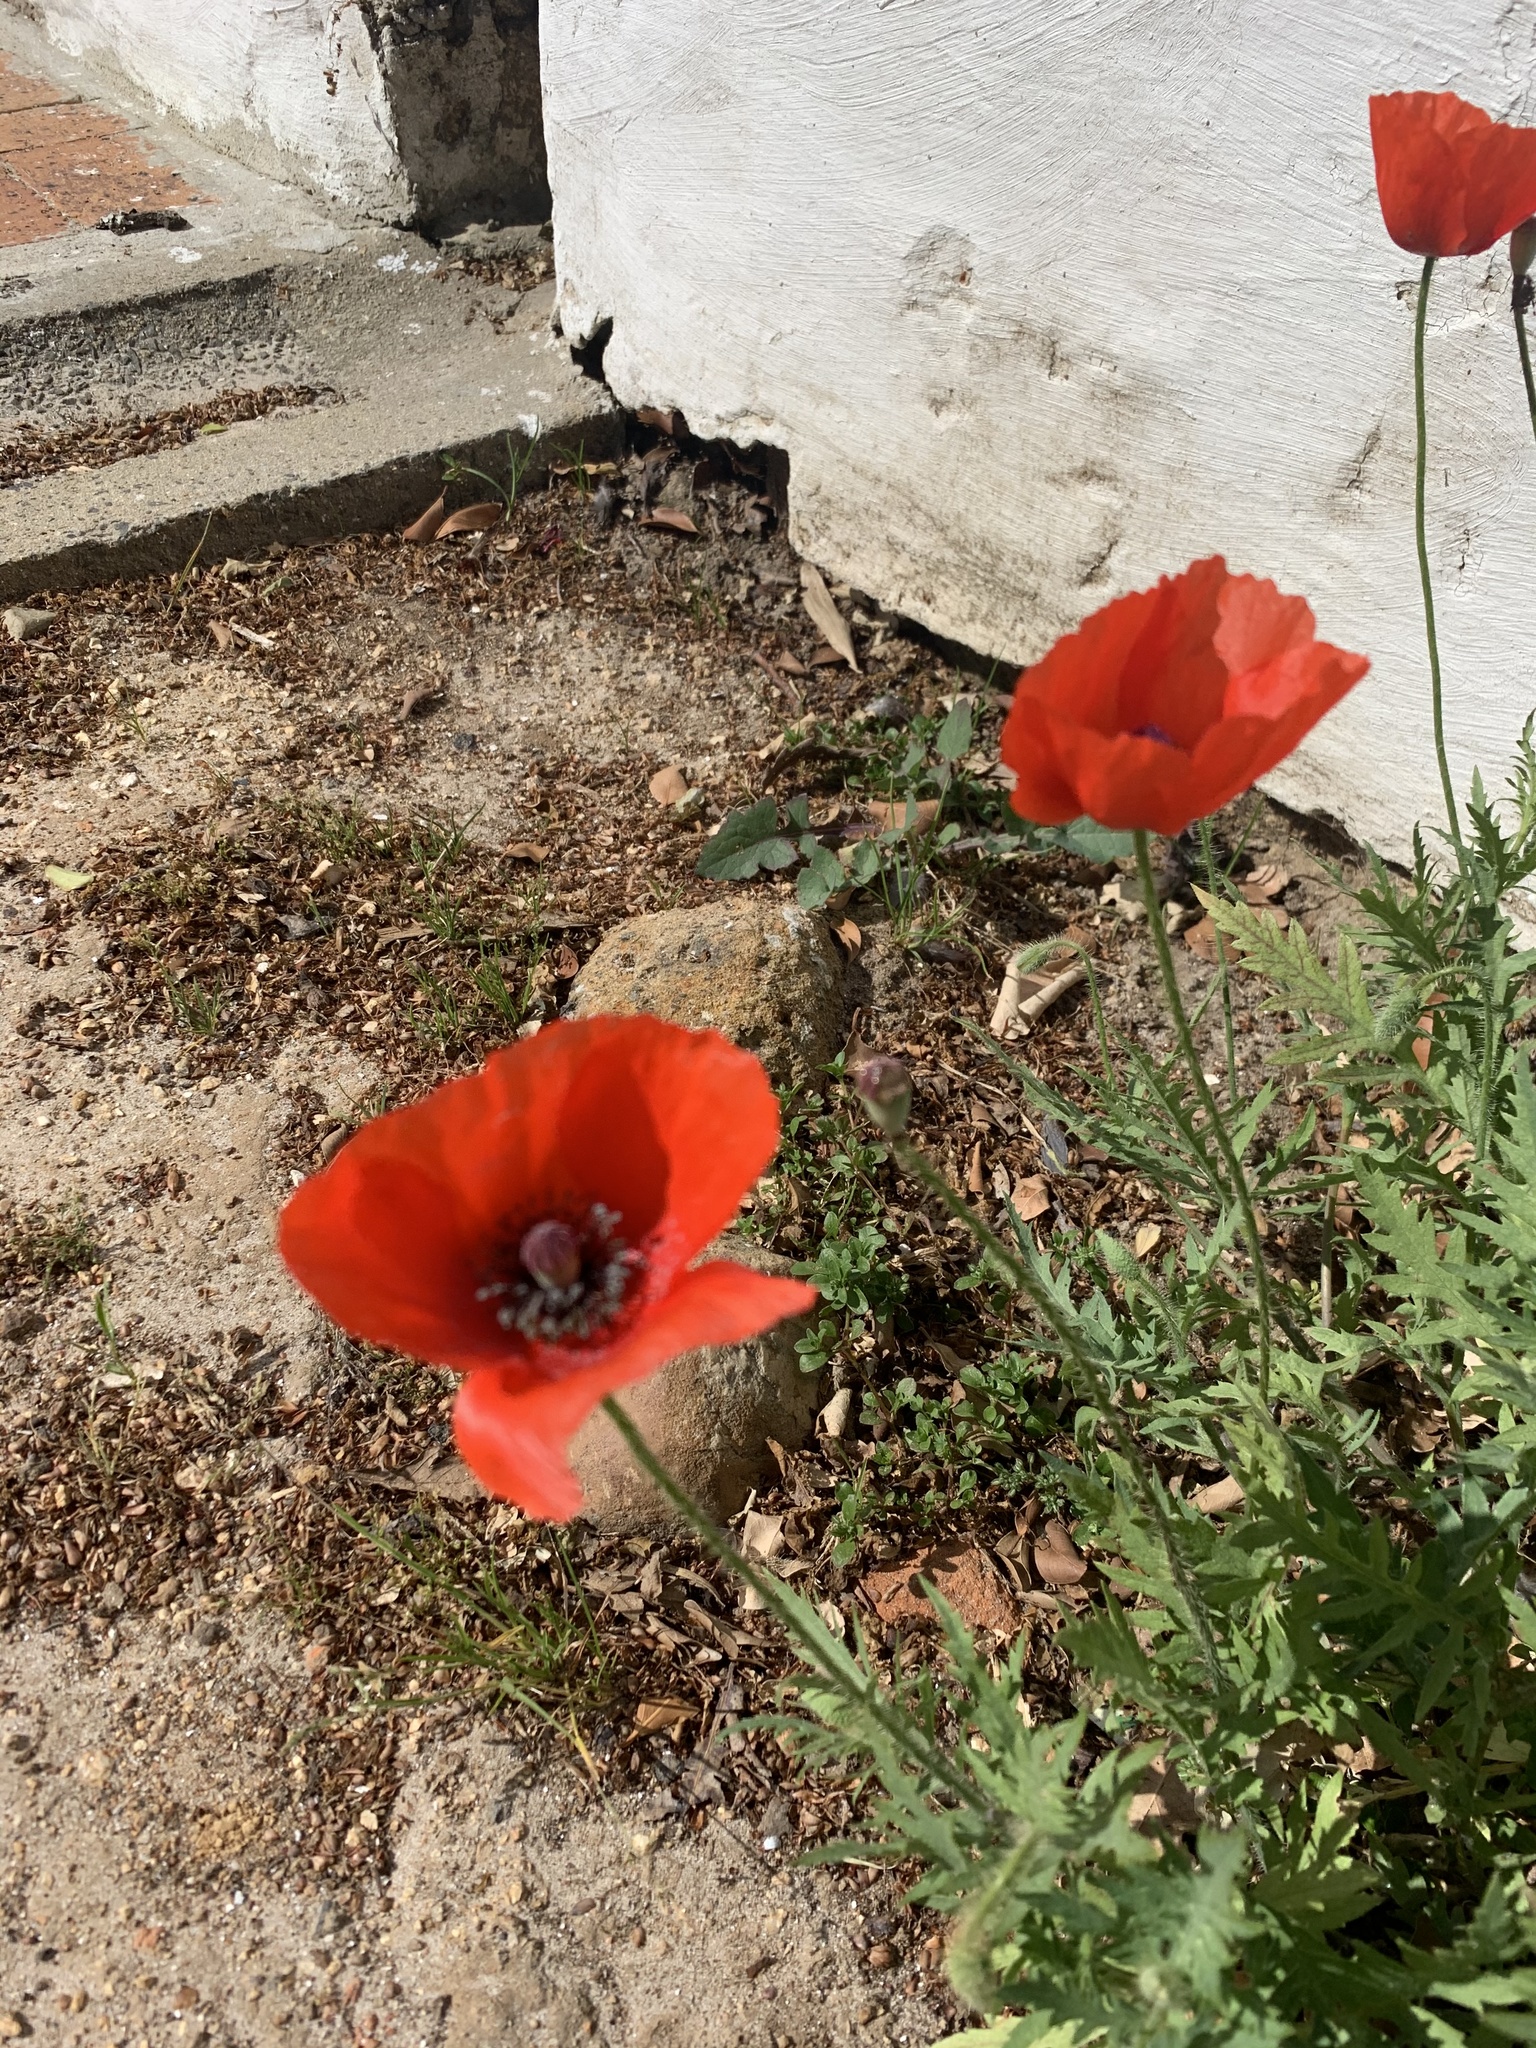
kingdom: Plantae
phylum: Tracheophyta
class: Magnoliopsida
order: Ranunculales
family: Papaveraceae
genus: Papaver
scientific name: Papaver rhoeas
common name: Corn poppy
